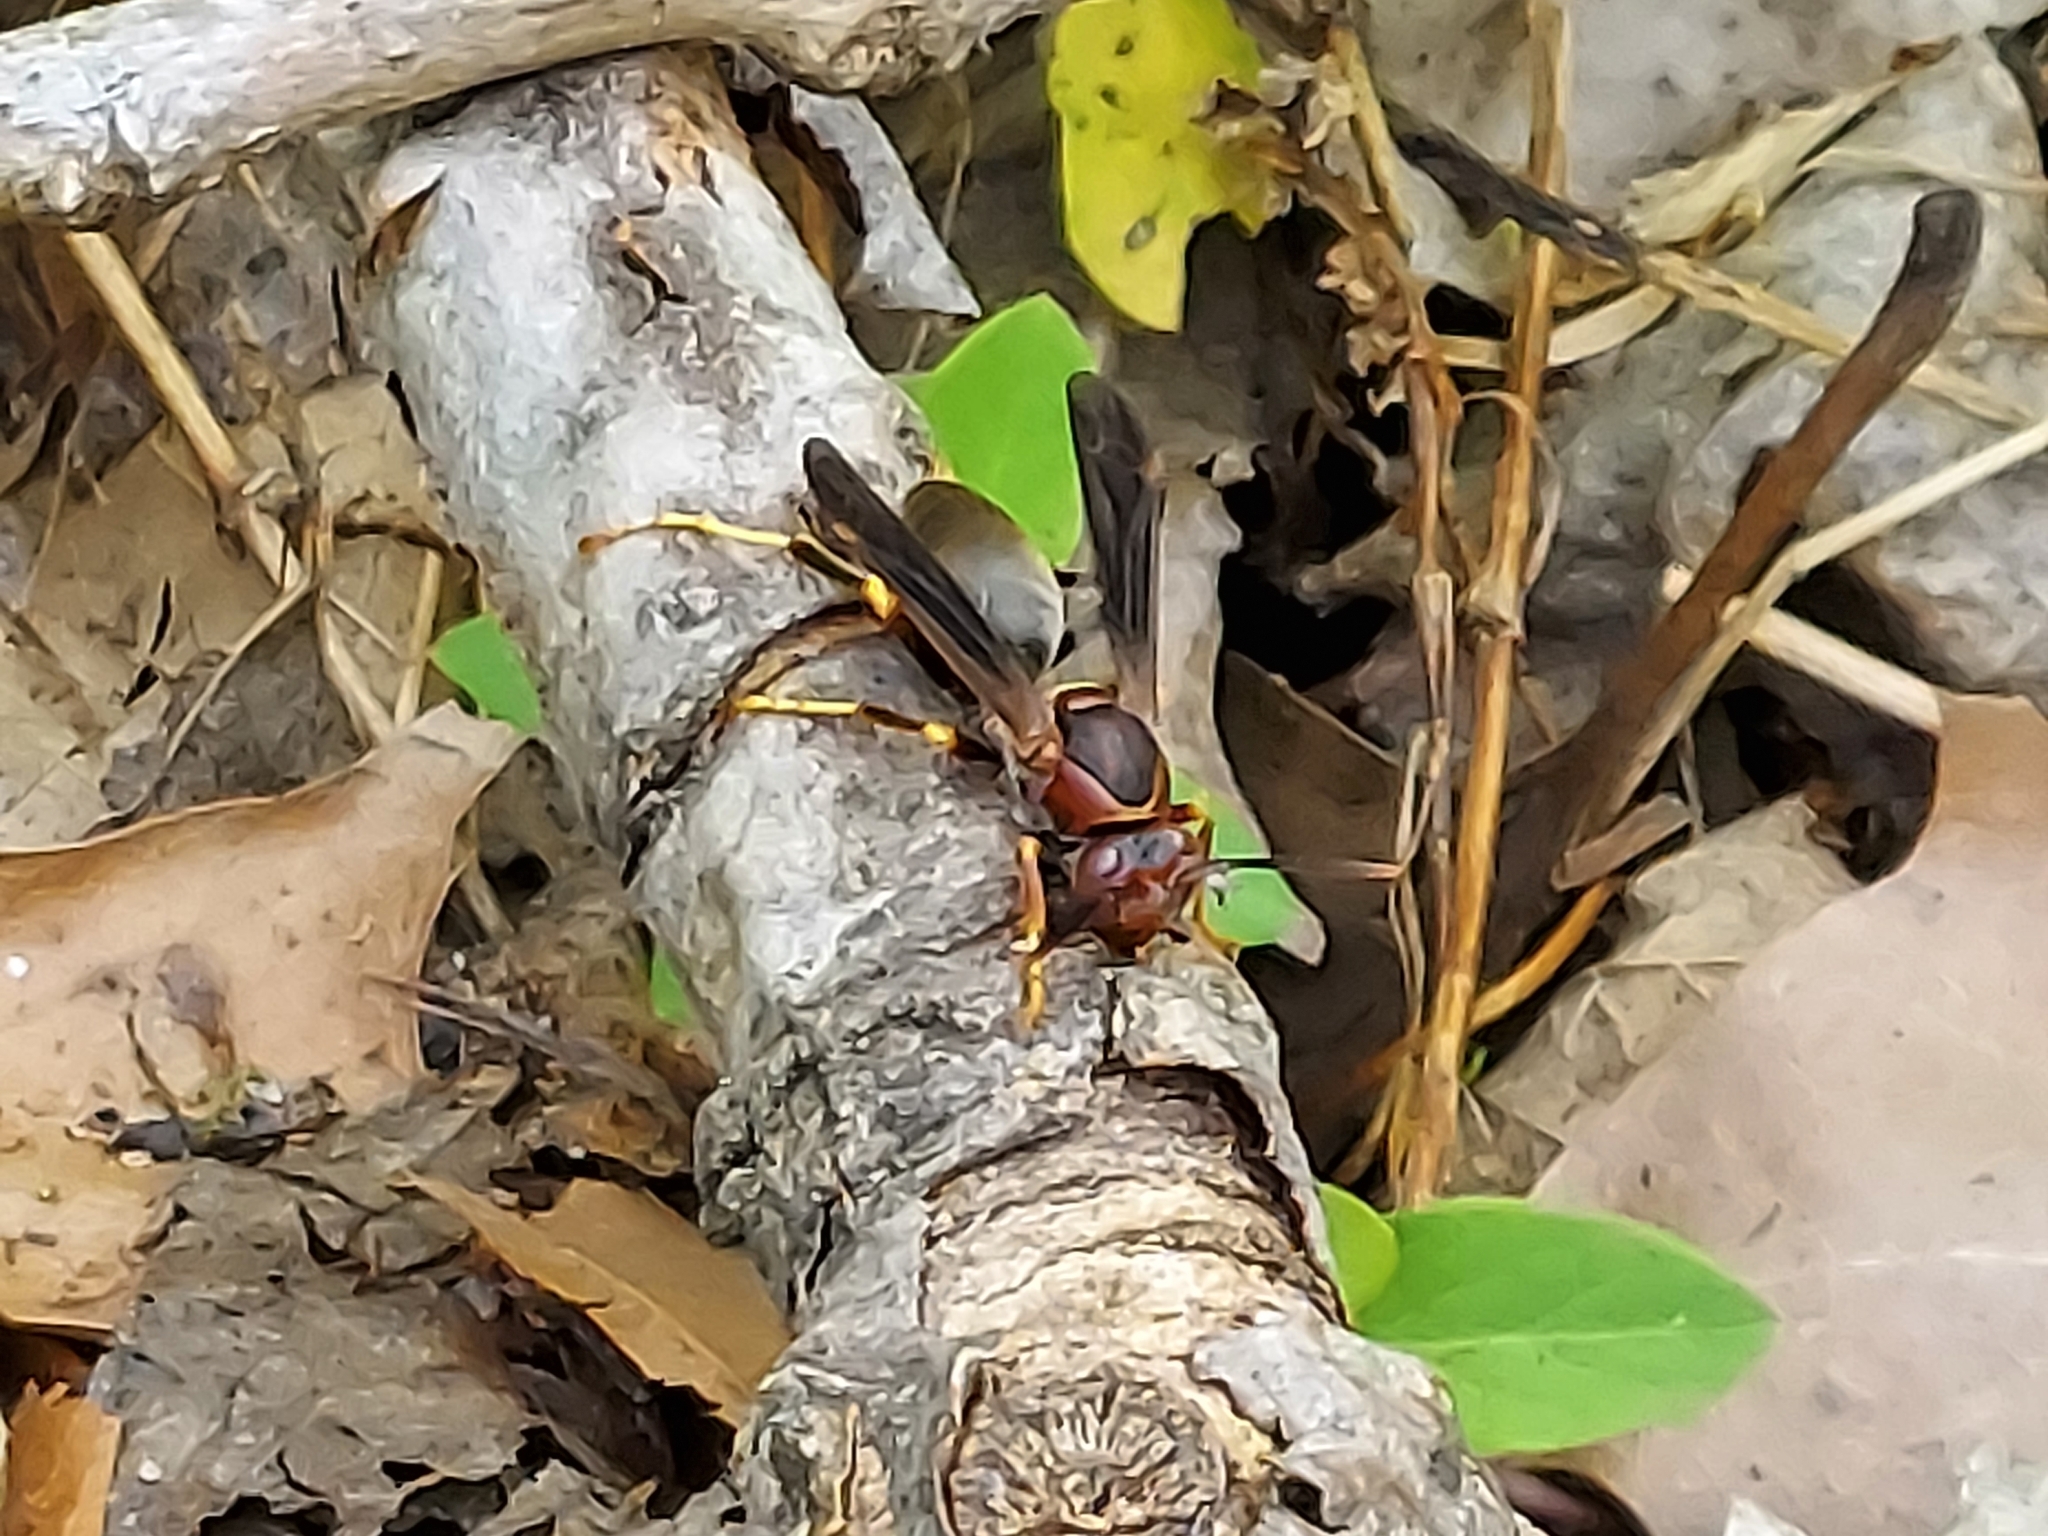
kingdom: Animalia
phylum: Arthropoda
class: Insecta
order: Hymenoptera
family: Eumenidae
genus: Polistes
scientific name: Polistes metricus
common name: Metric paper wasp
